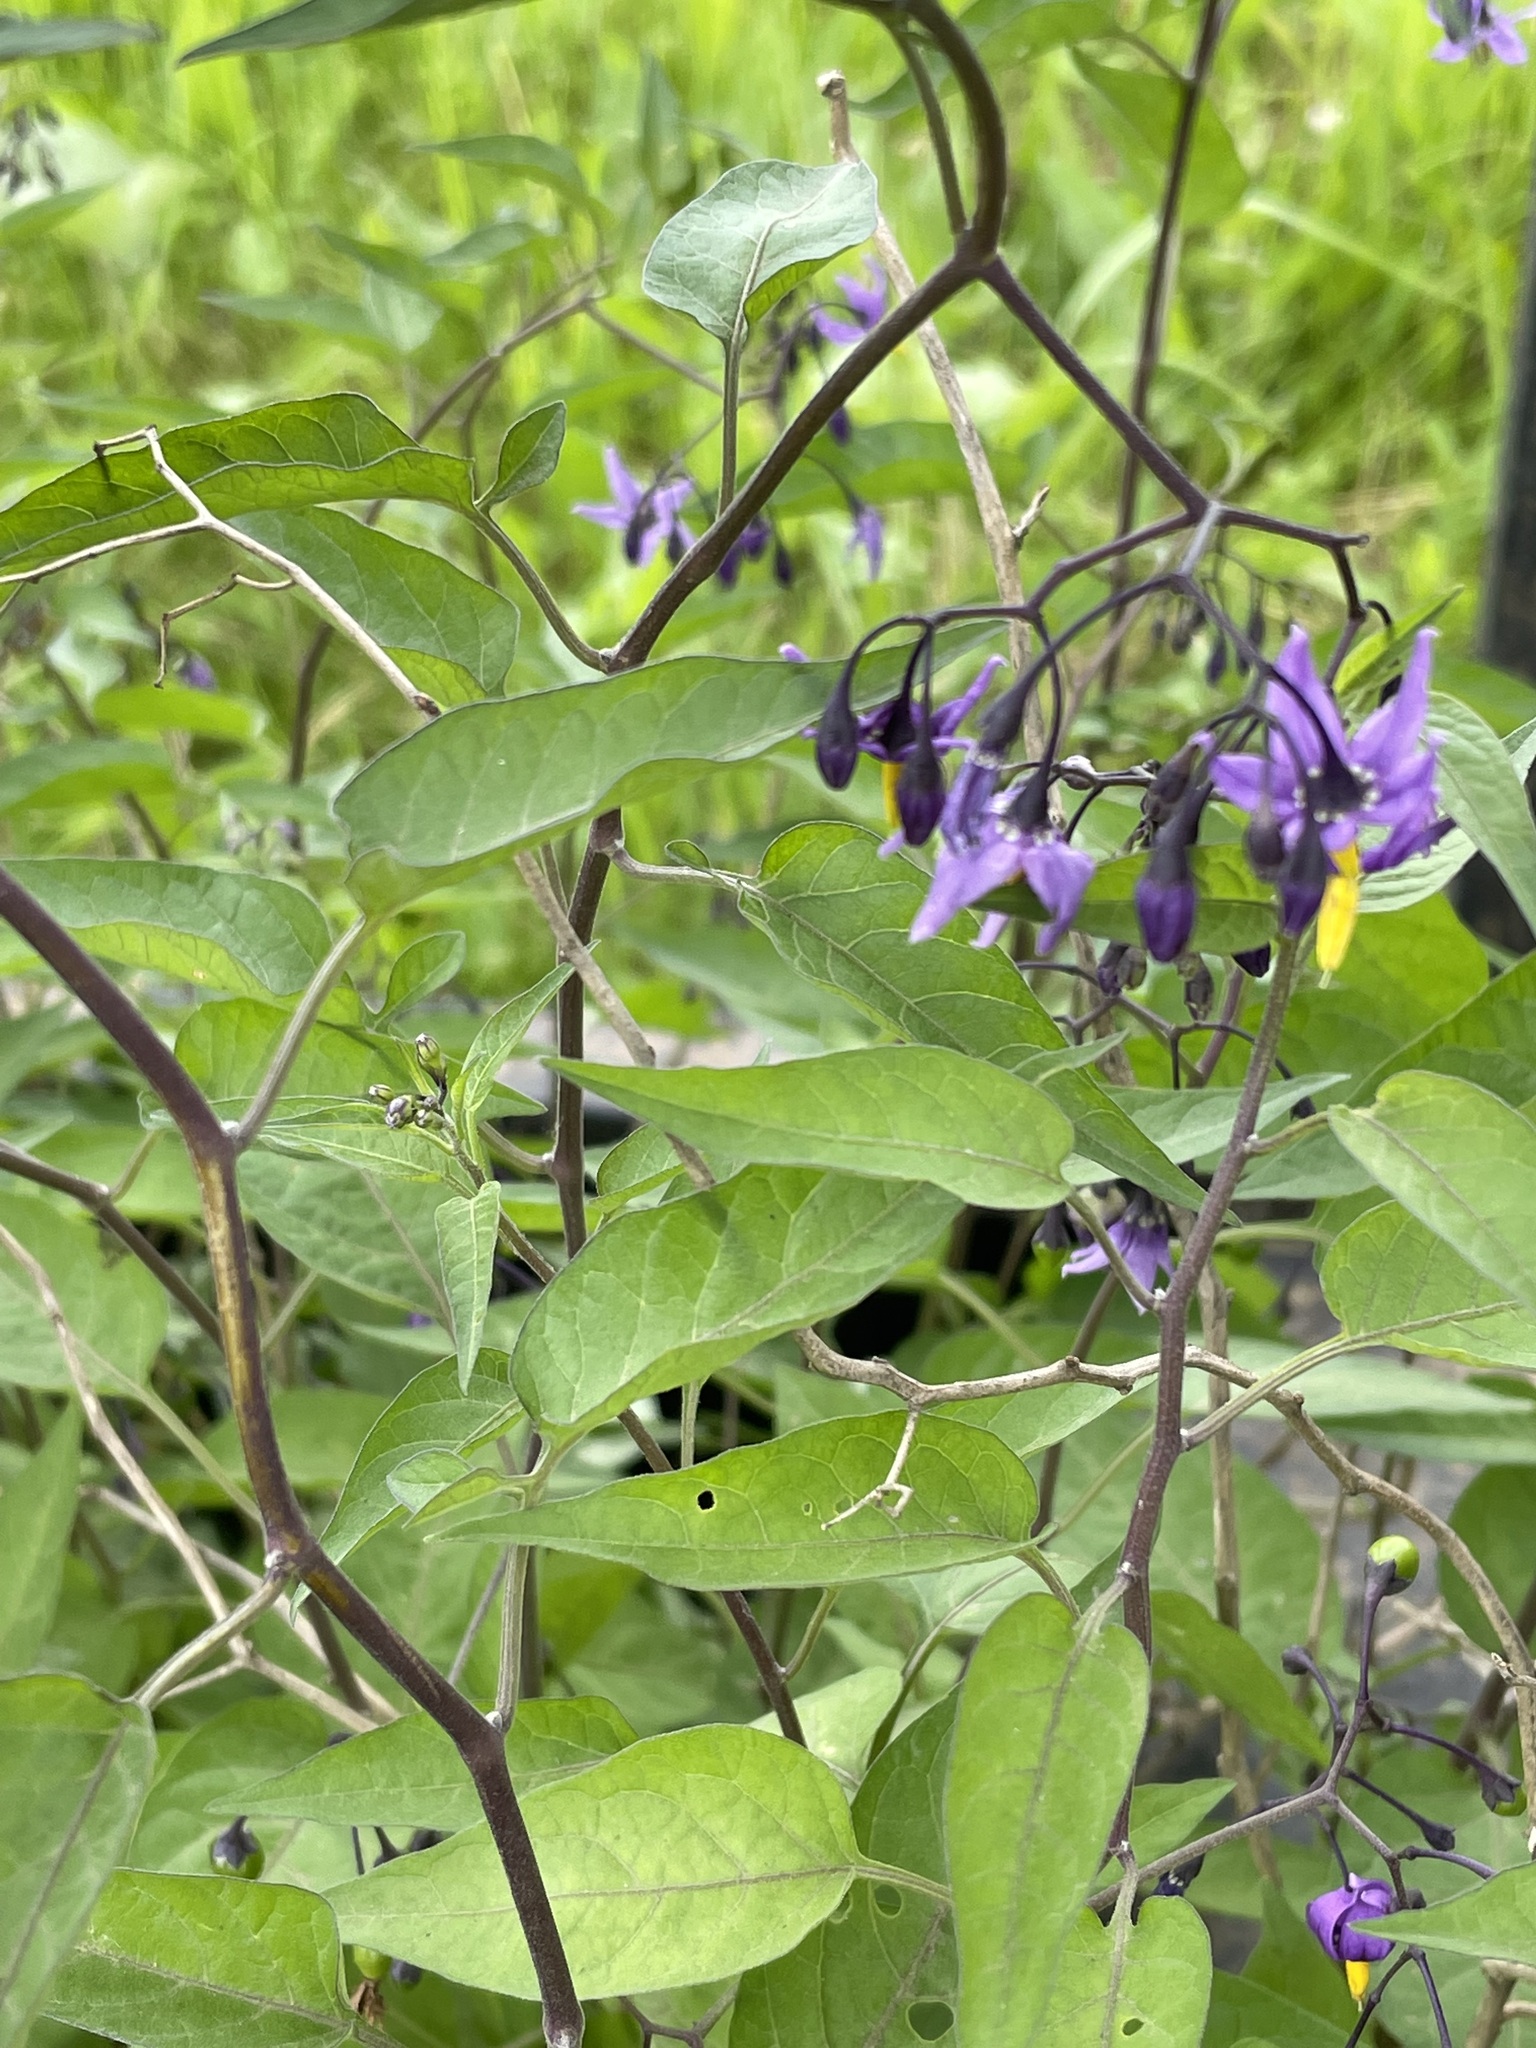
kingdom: Plantae
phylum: Tracheophyta
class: Magnoliopsida
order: Solanales
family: Solanaceae
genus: Solanum
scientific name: Solanum dulcamara
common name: Climbing nightshade
